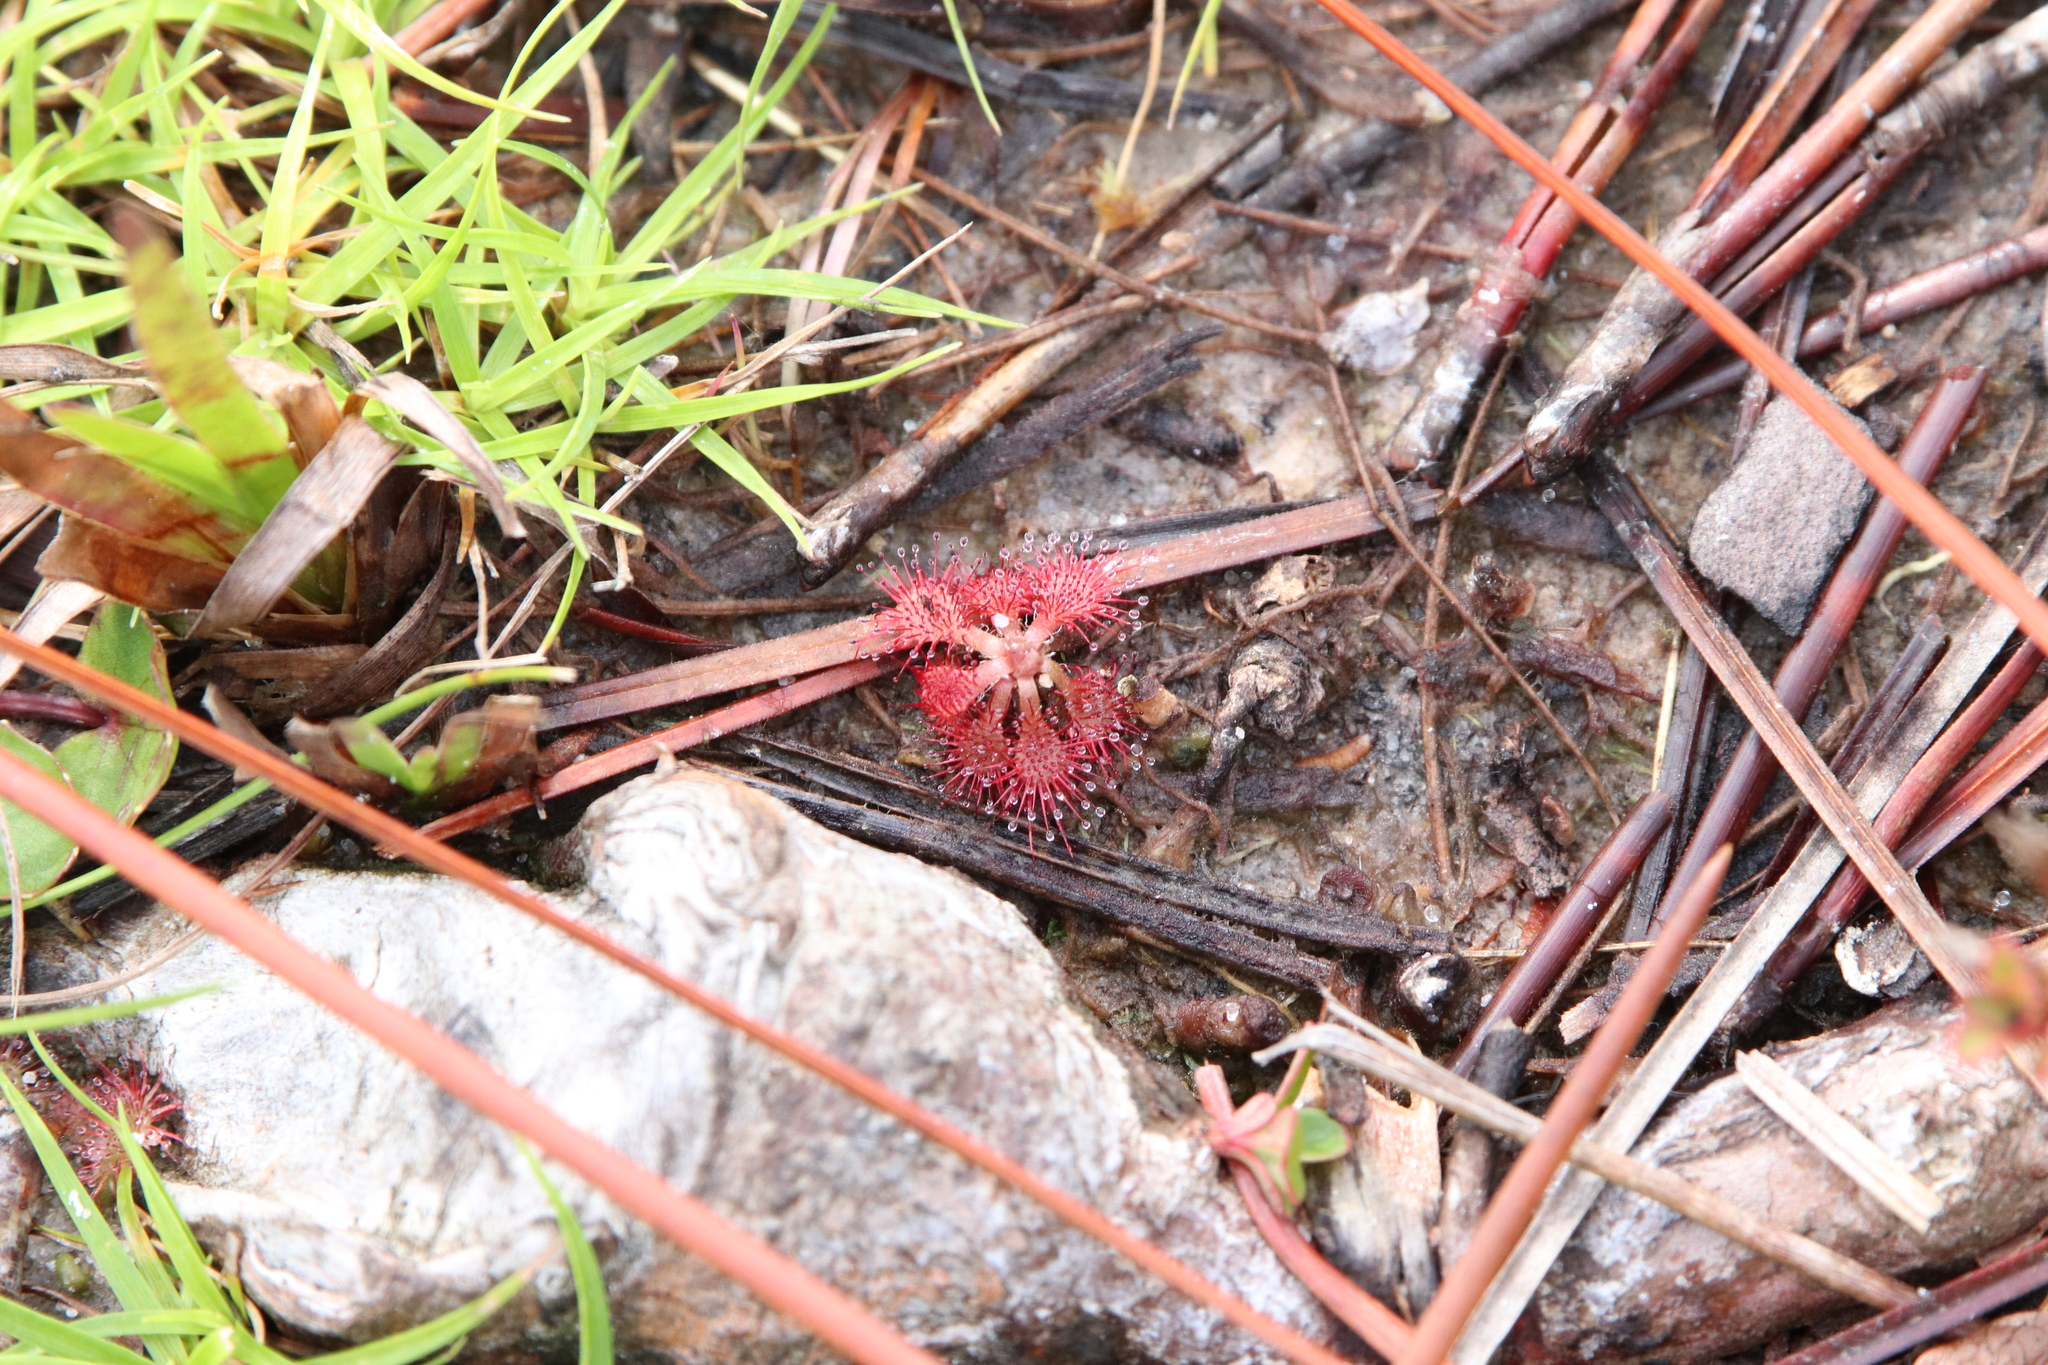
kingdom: Plantae
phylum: Tracheophyta
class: Magnoliopsida
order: Caryophyllales
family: Droseraceae
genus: Drosera
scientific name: Drosera capillaris
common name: Pink sundew
